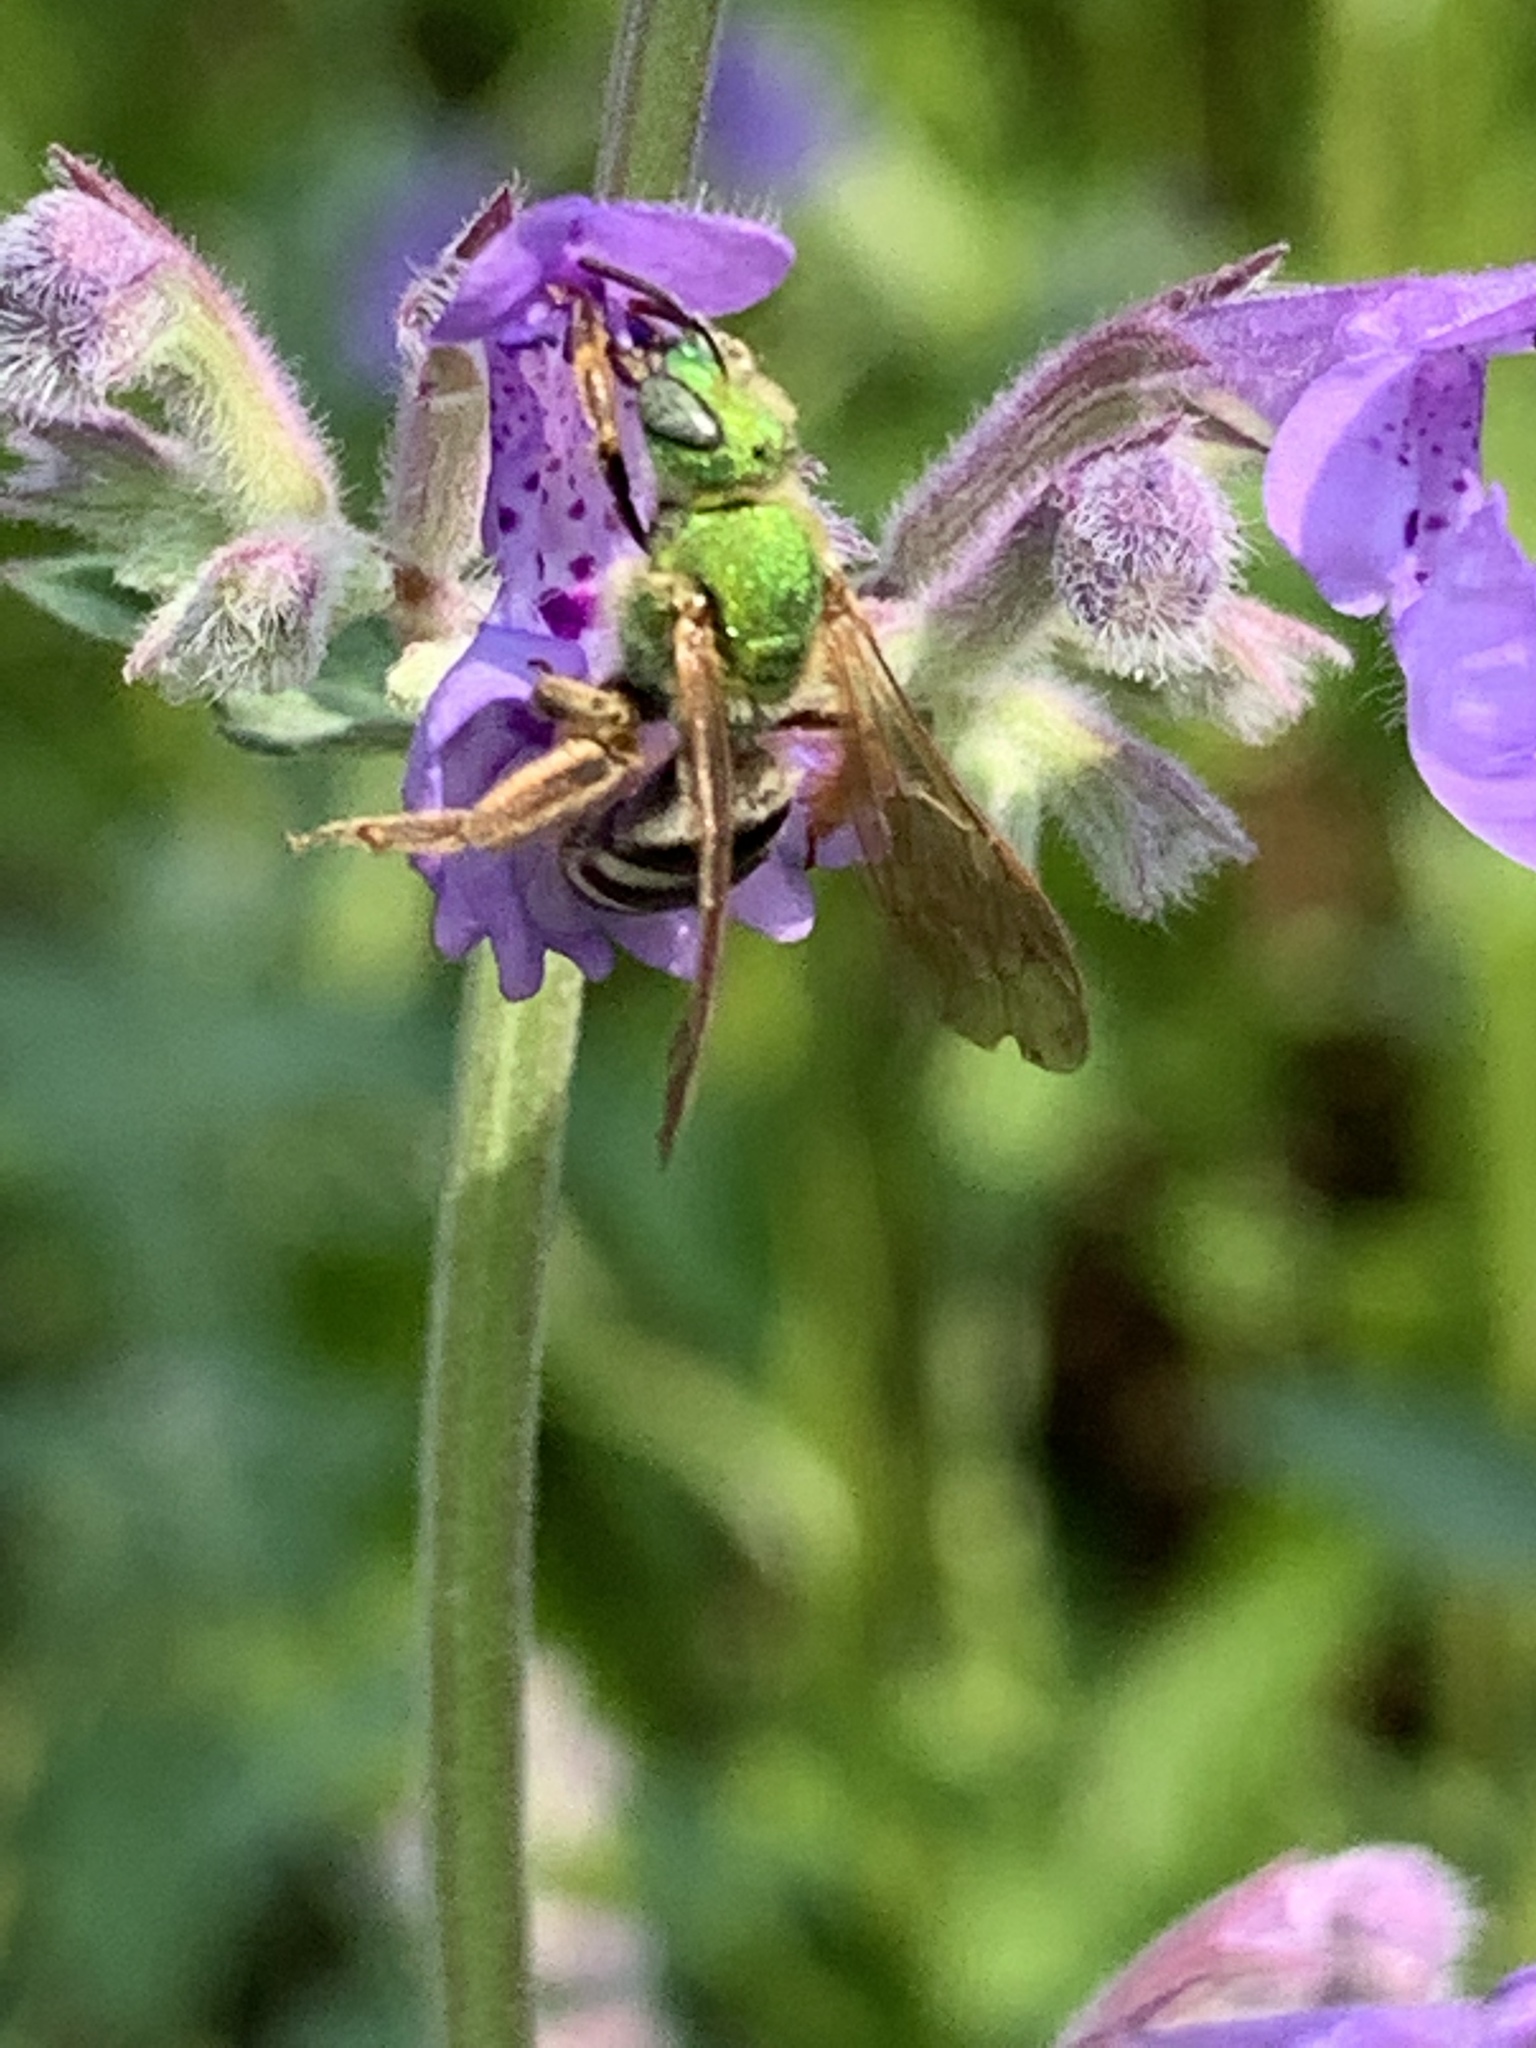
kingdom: Animalia
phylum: Arthropoda
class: Insecta
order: Hymenoptera
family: Halictidae
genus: Agapostemon
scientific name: Agapostemon virescens
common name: Bicolored striped sweat bee
